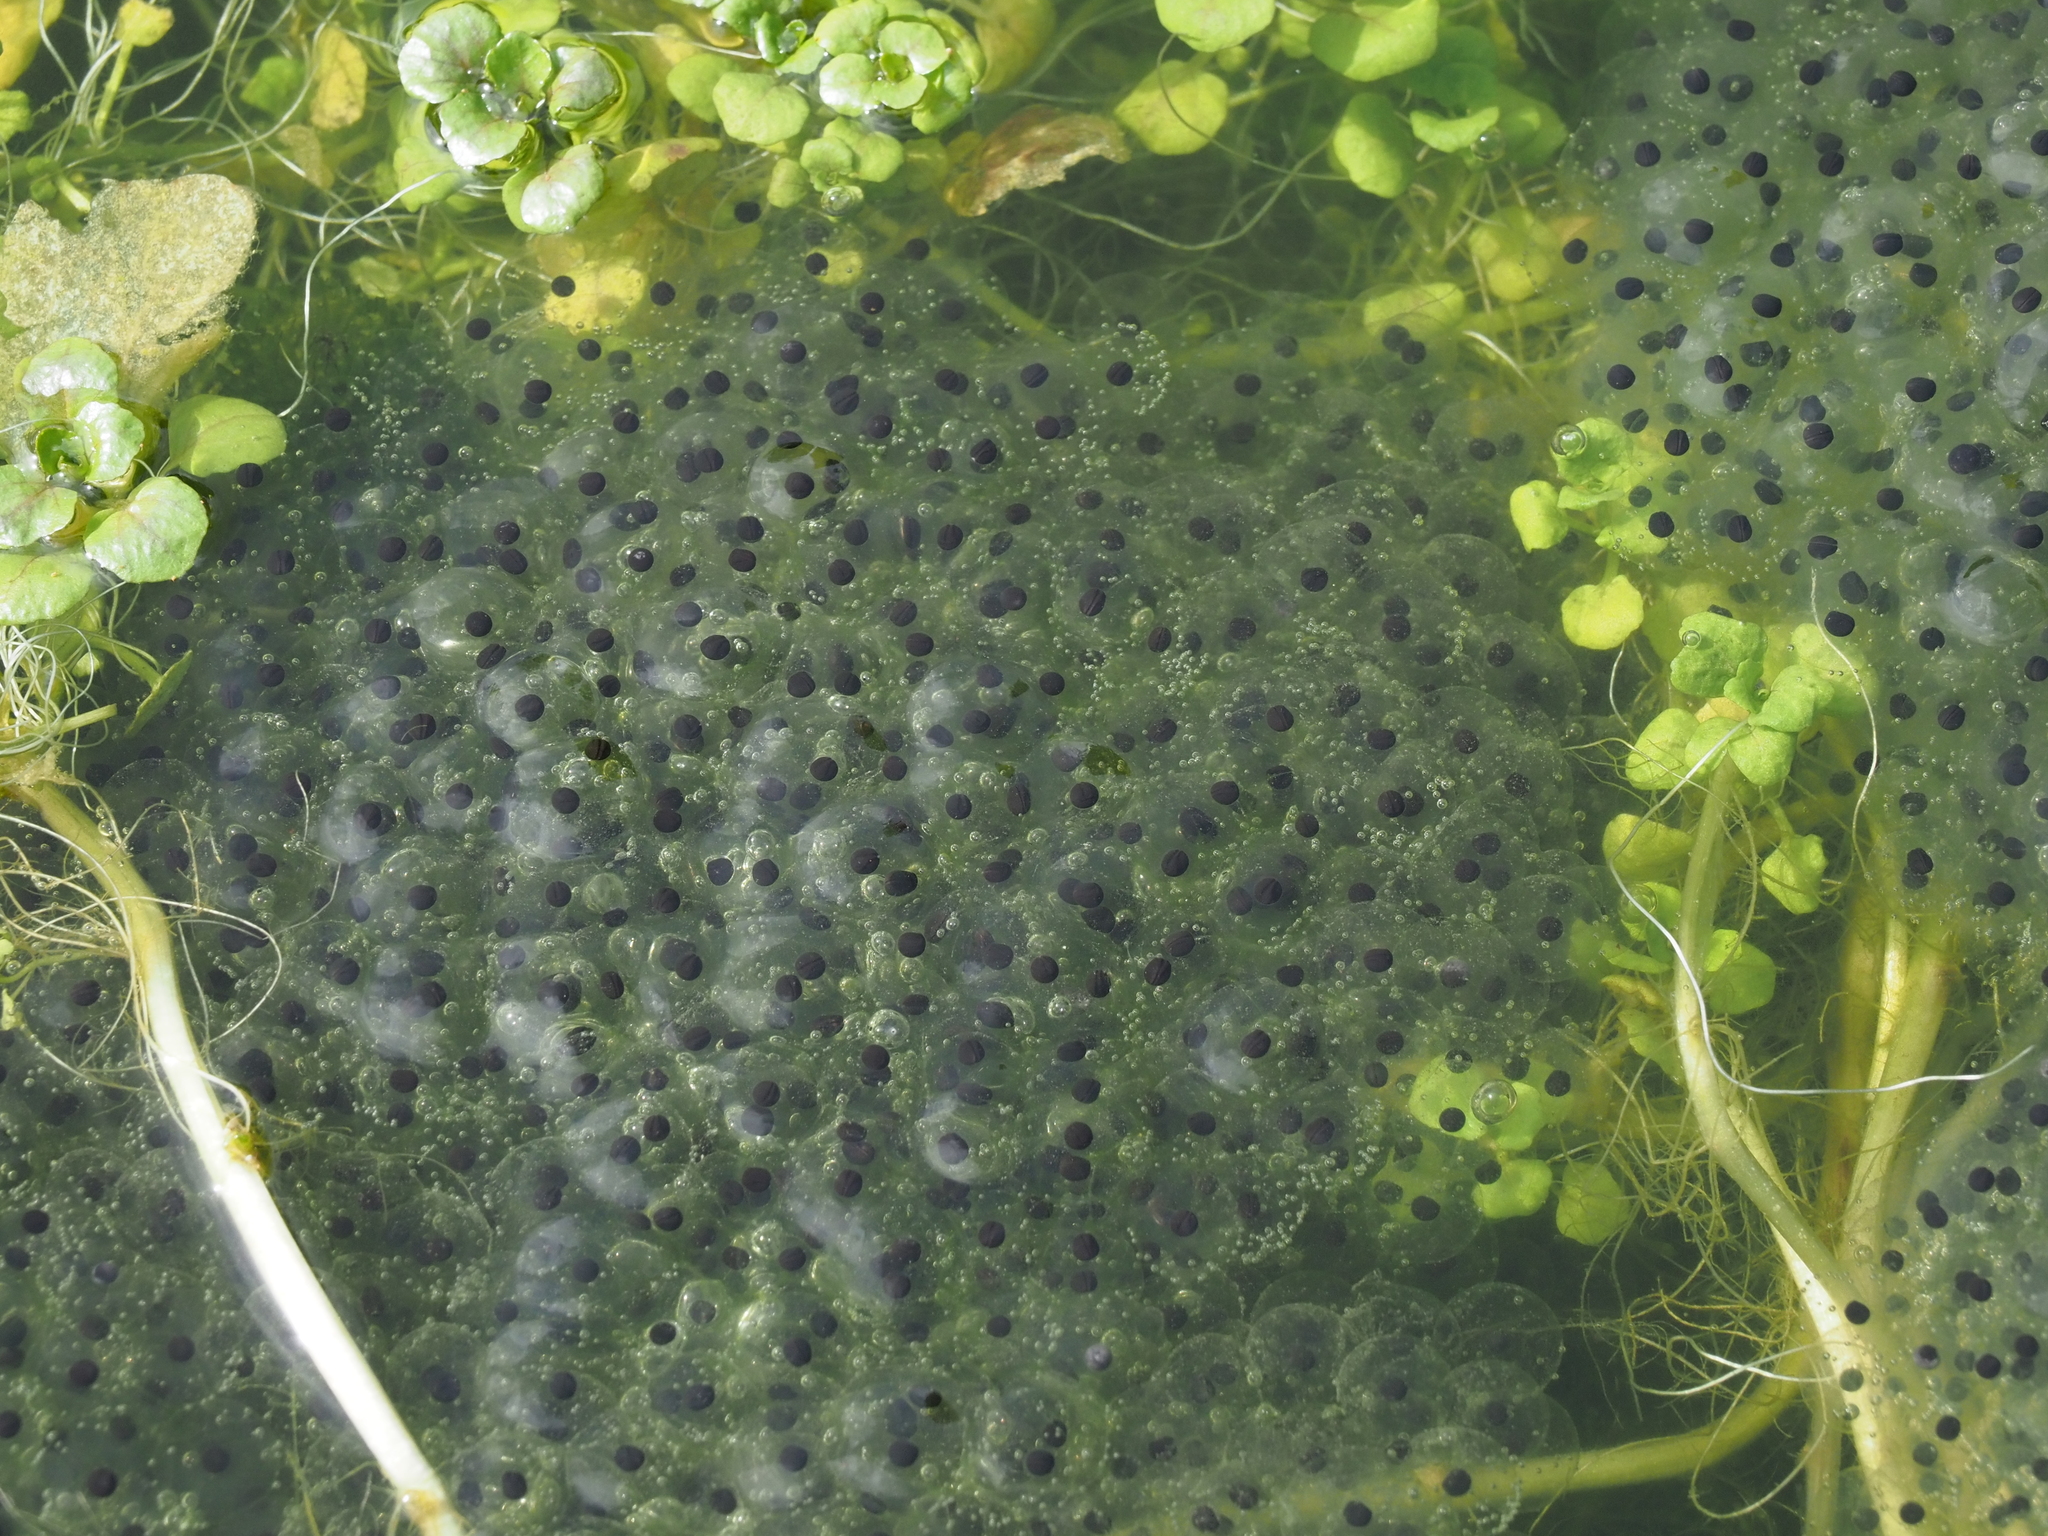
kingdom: Animalia
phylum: Chordata
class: Amphibia
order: Anura
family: Ranidae
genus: Rana
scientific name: Rana temporaria
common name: Common frog
